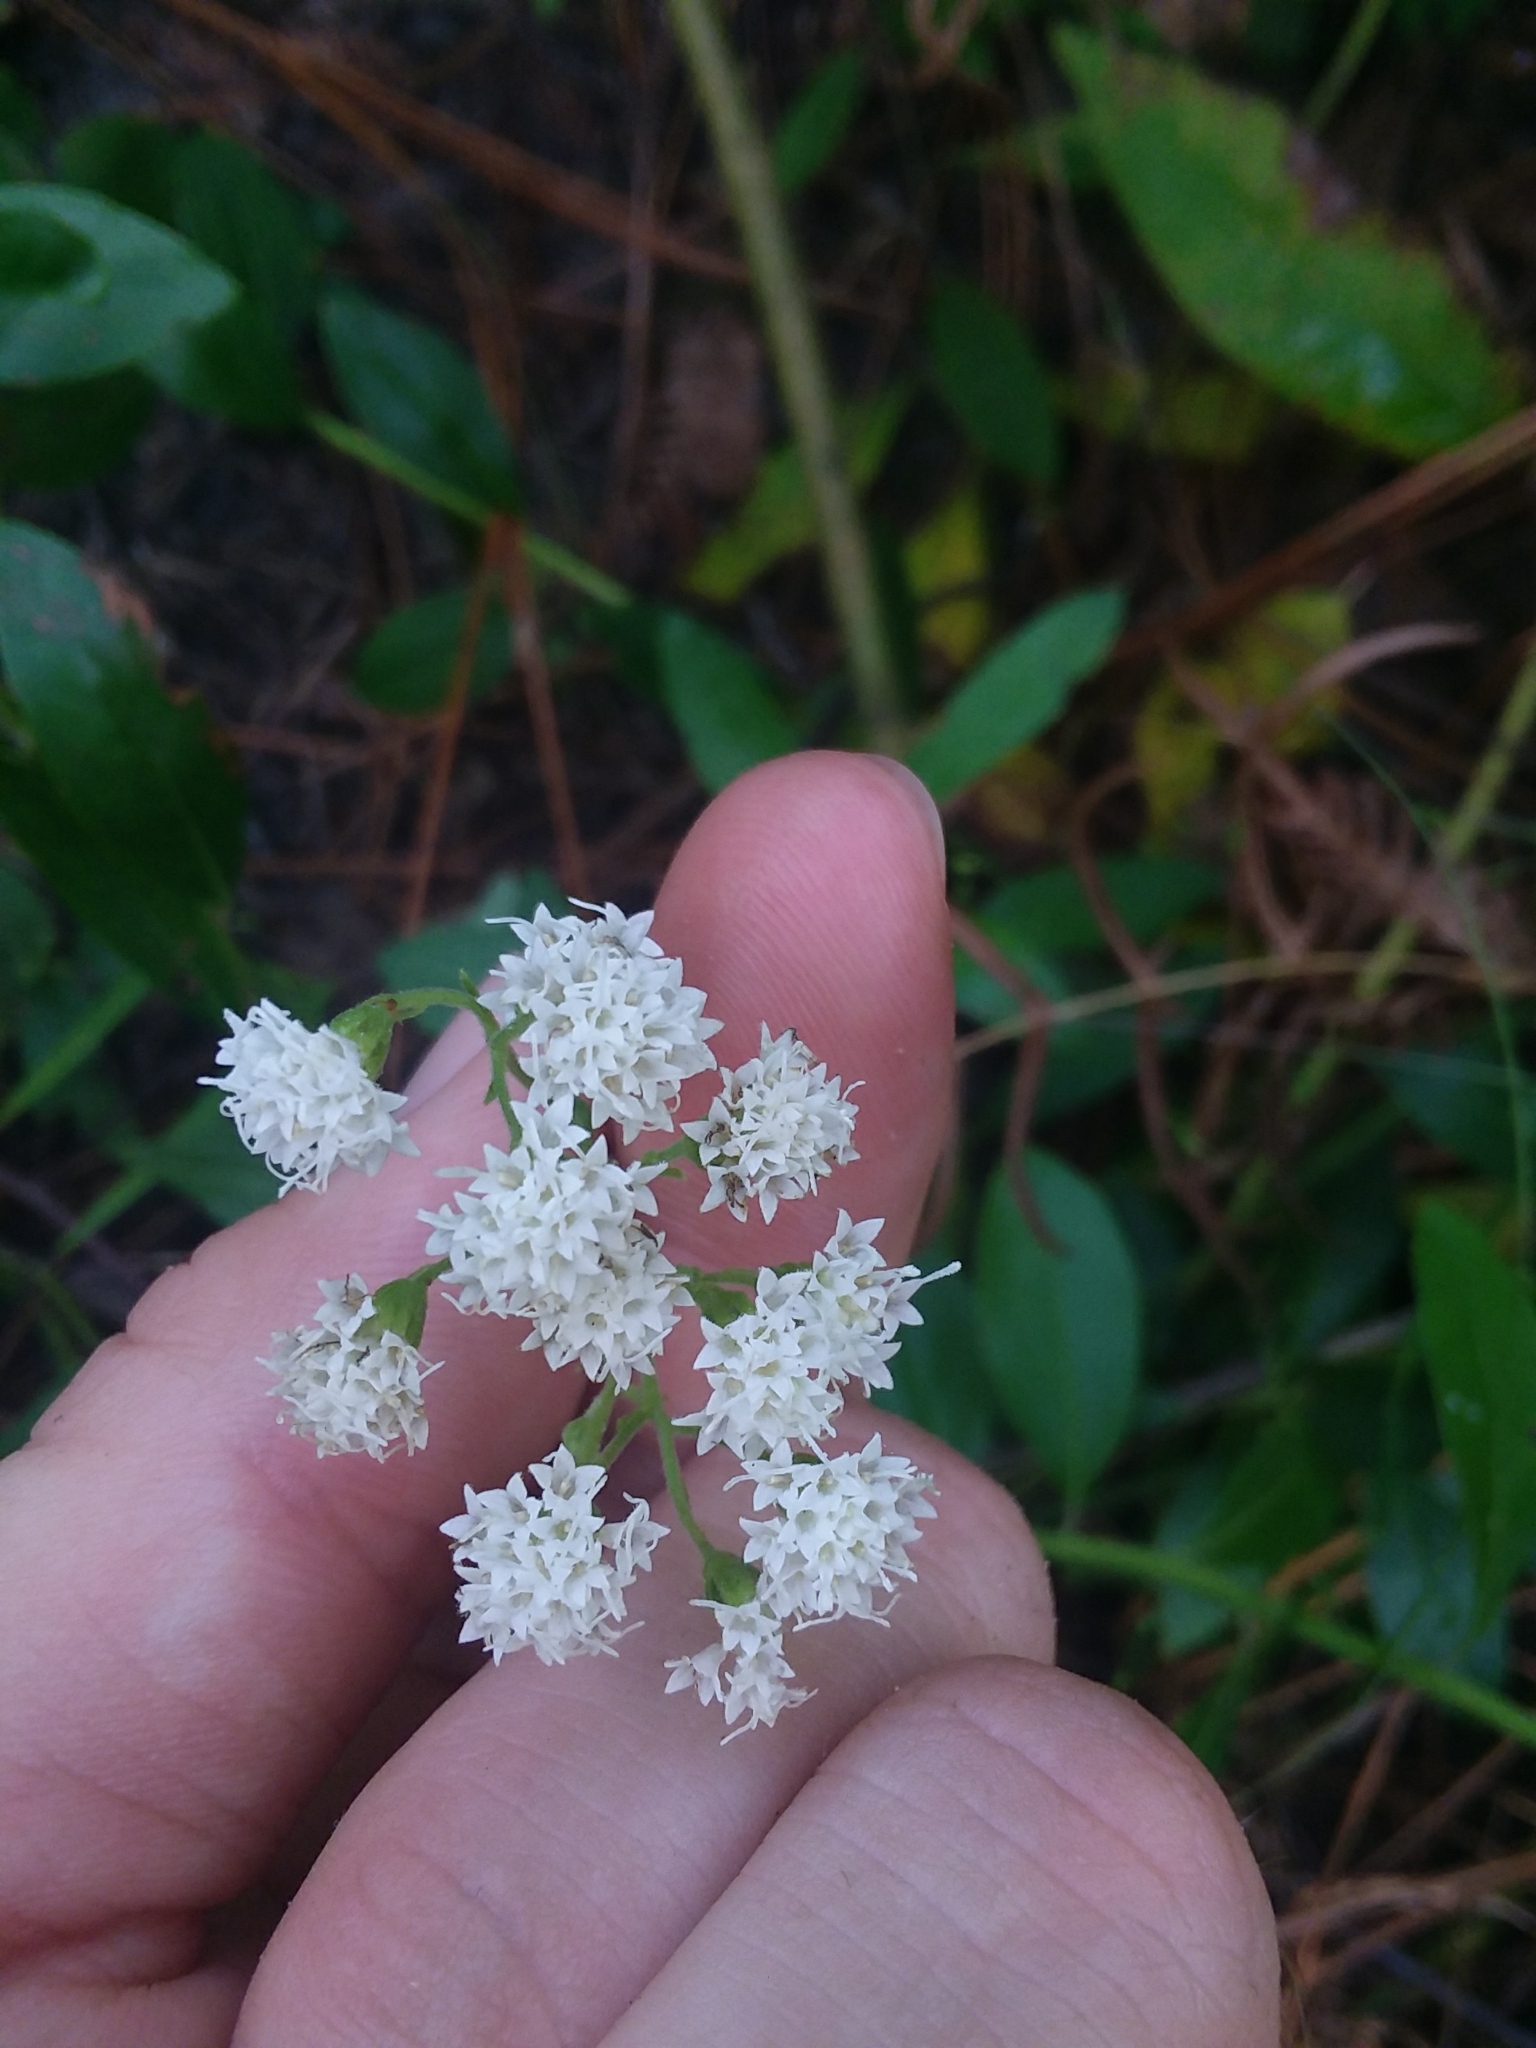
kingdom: Plantae
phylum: Tracheophyta
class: Magnoliopsida
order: Asterales
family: Asteraceae
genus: Ageratina
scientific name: Ageratina aromatica
